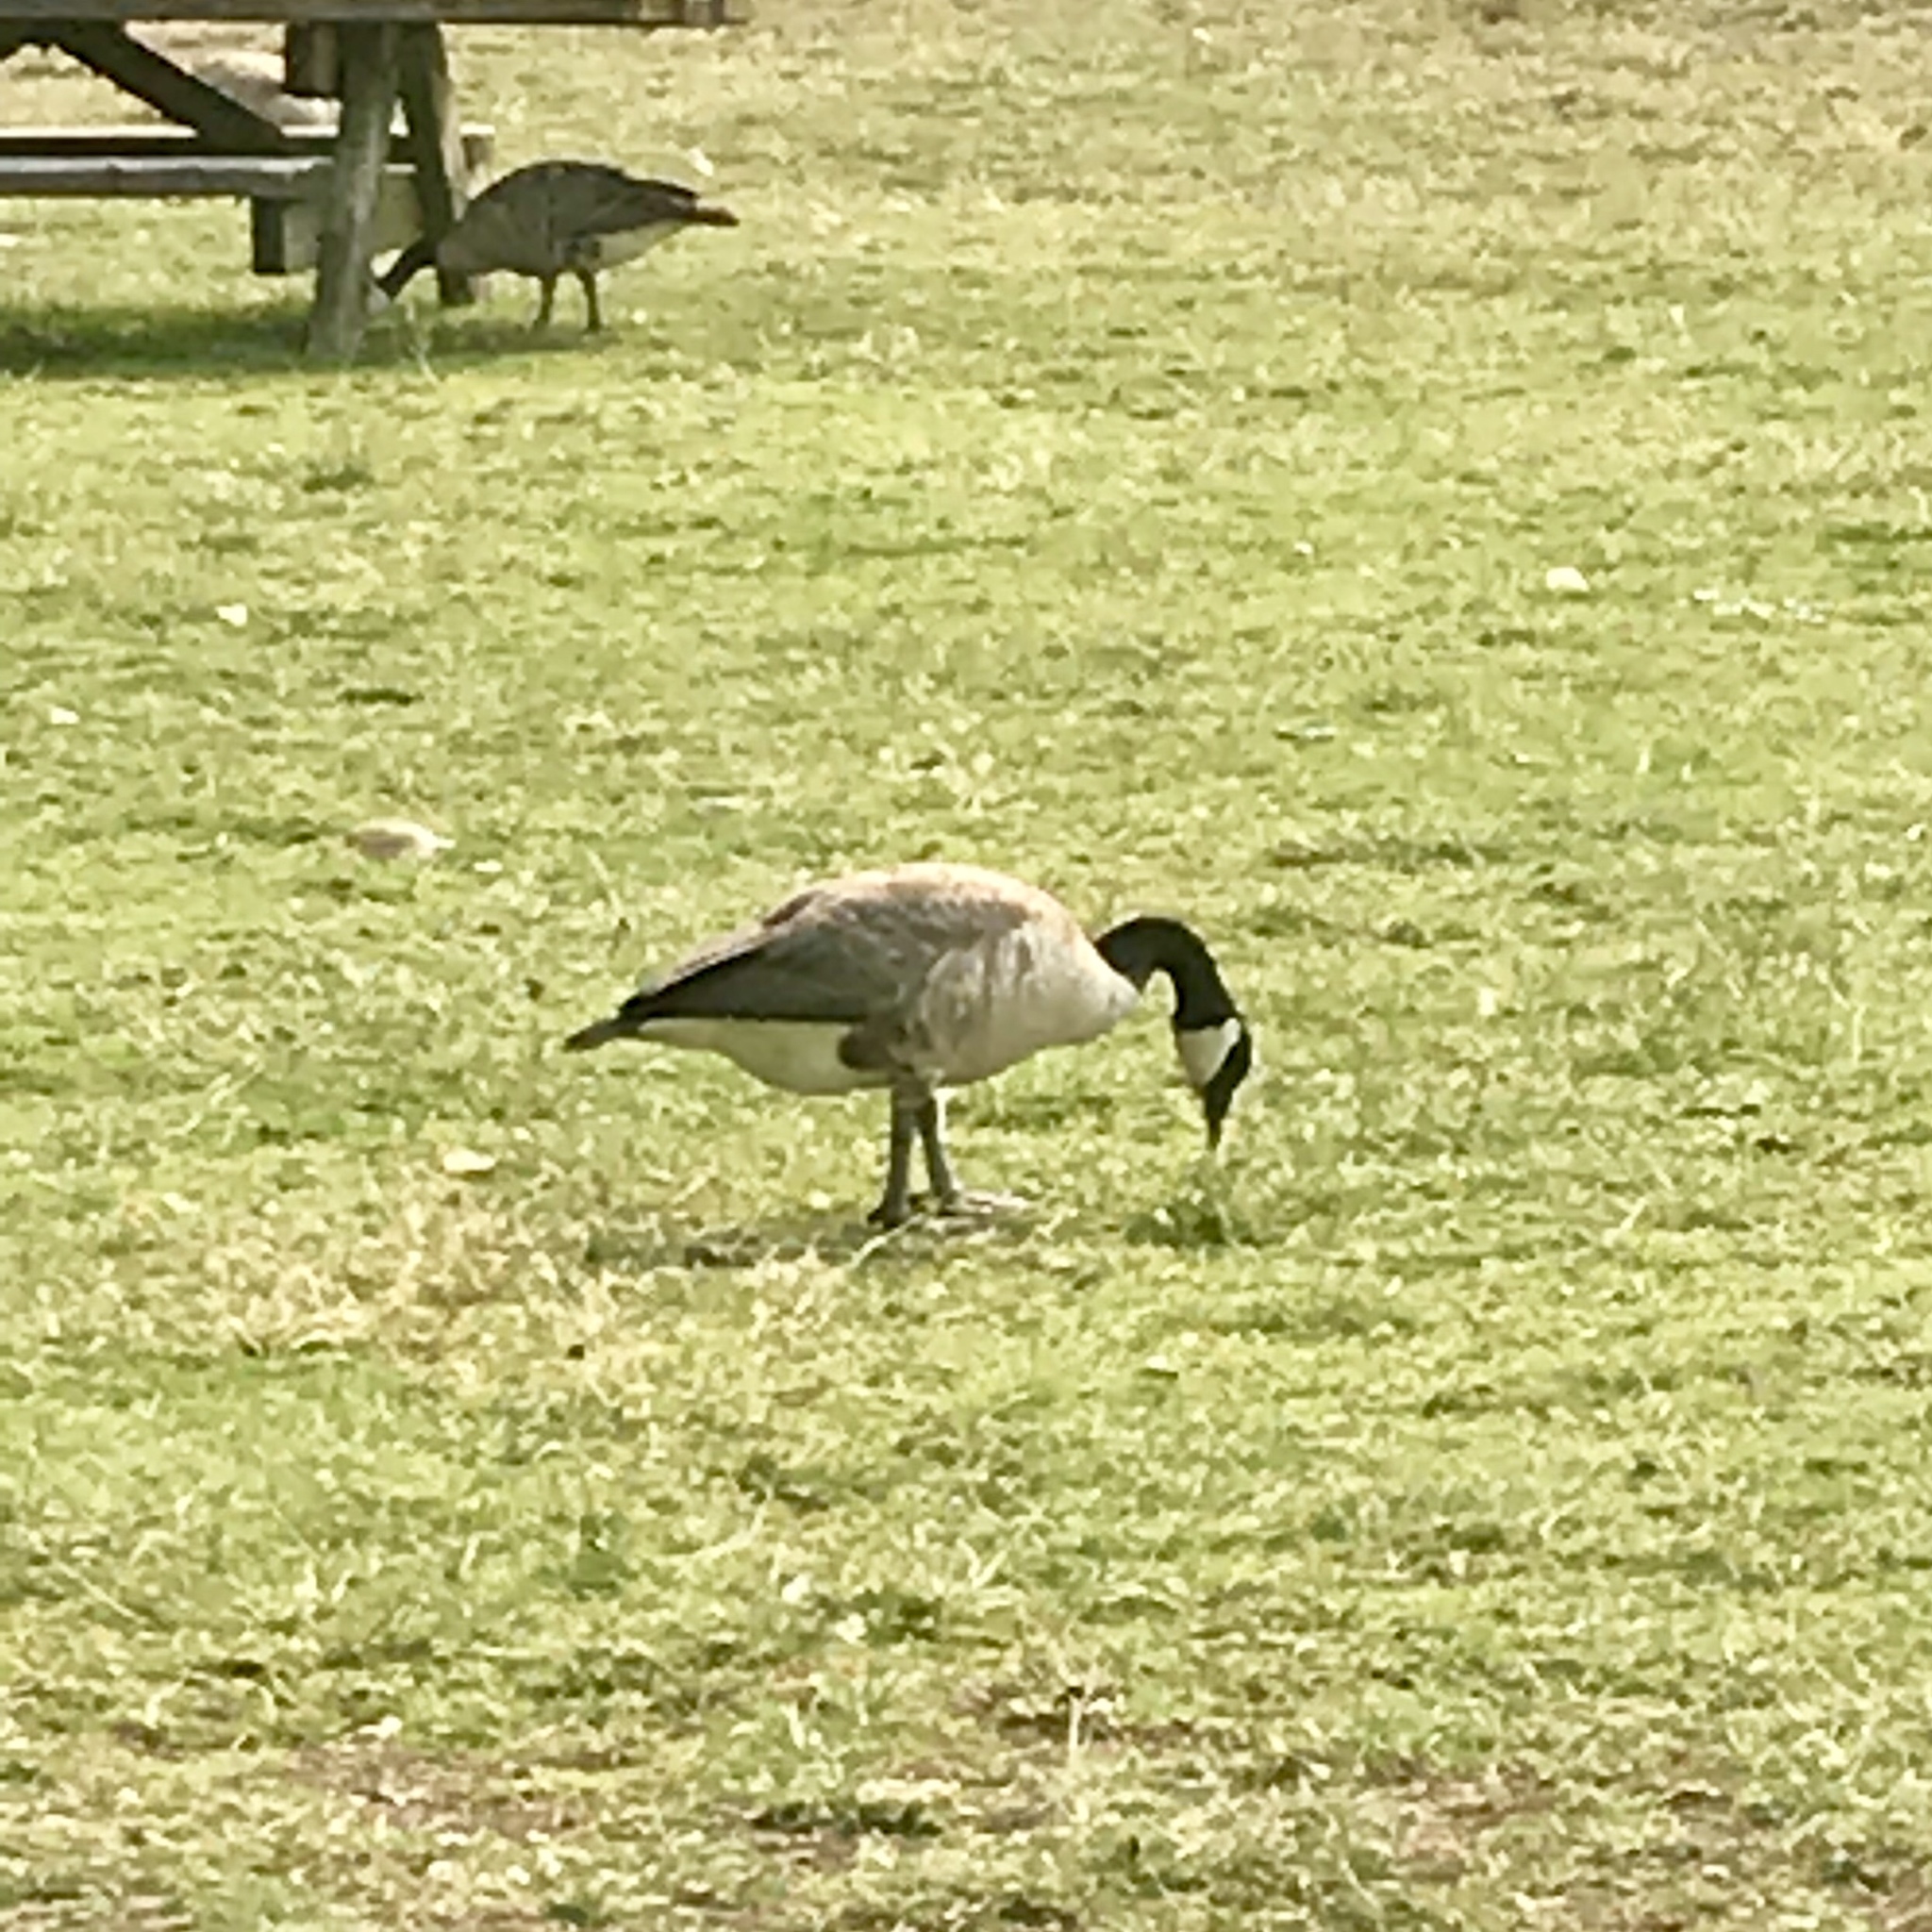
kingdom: Animalia
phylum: Chordata
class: Aves
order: Anseriformes
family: Anatidae
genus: Branta
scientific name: Branta canadensis
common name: Canada goose
